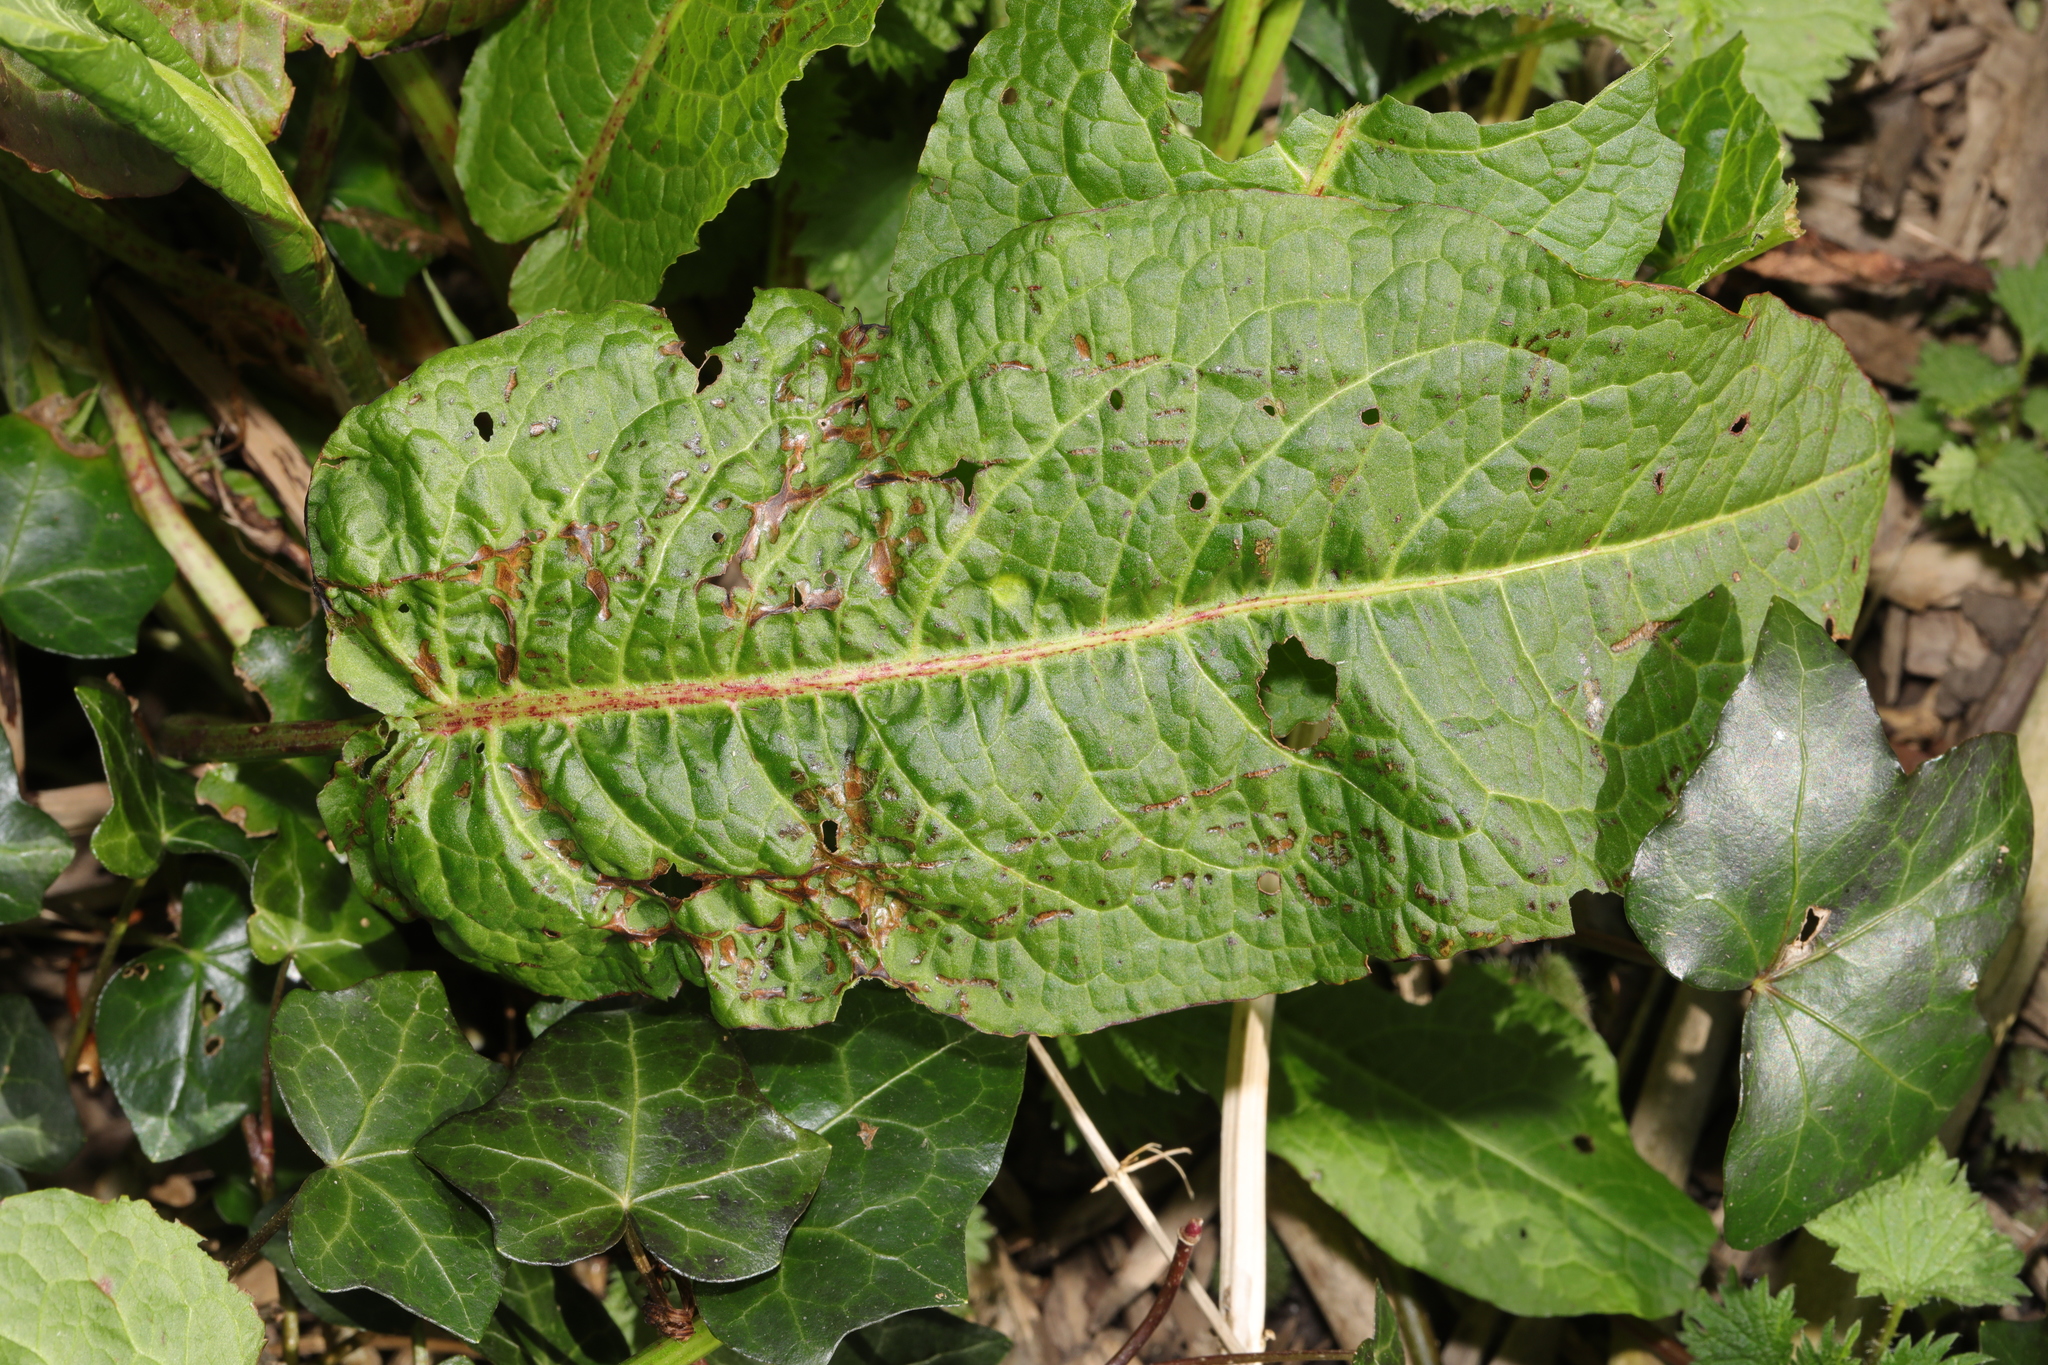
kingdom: Plantae
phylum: Tracheophyta
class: Magnoliopsida
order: Caryophyllales
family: Polygonaceae
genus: Rumex
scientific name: Rumex obtusifolius
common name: Bitter dock
